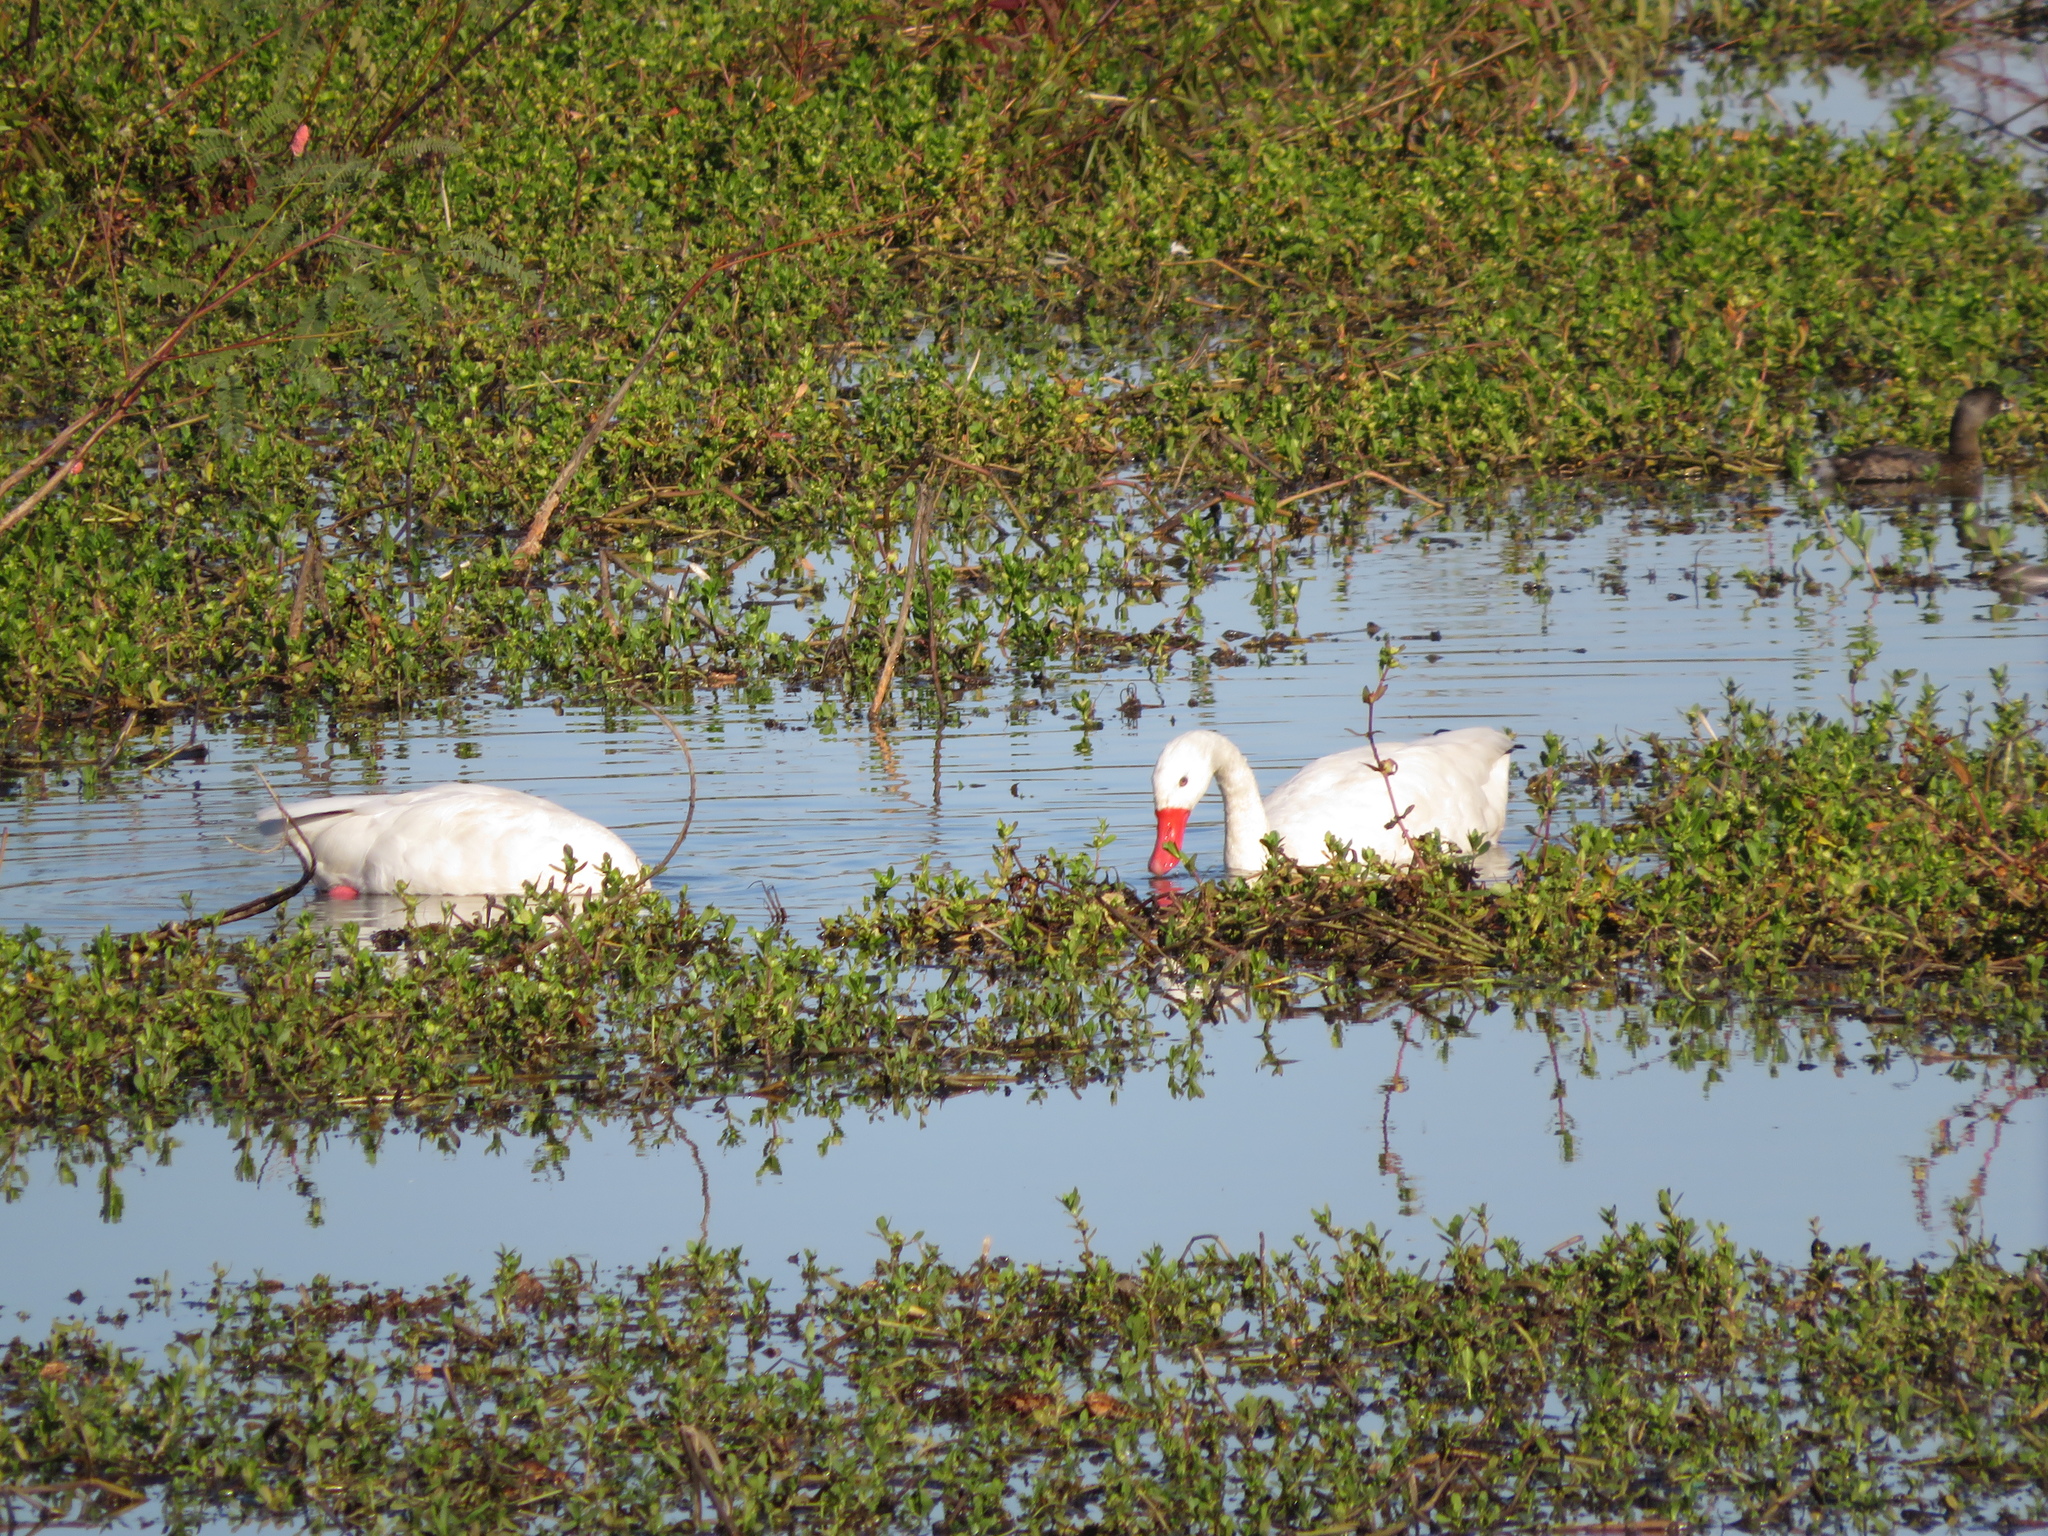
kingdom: Animalia
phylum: Chordata
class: Aves
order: Anseriformes
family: Anatidae
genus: Coscoroba
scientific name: Coscoroba coscoroba
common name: Coscoroba swan
